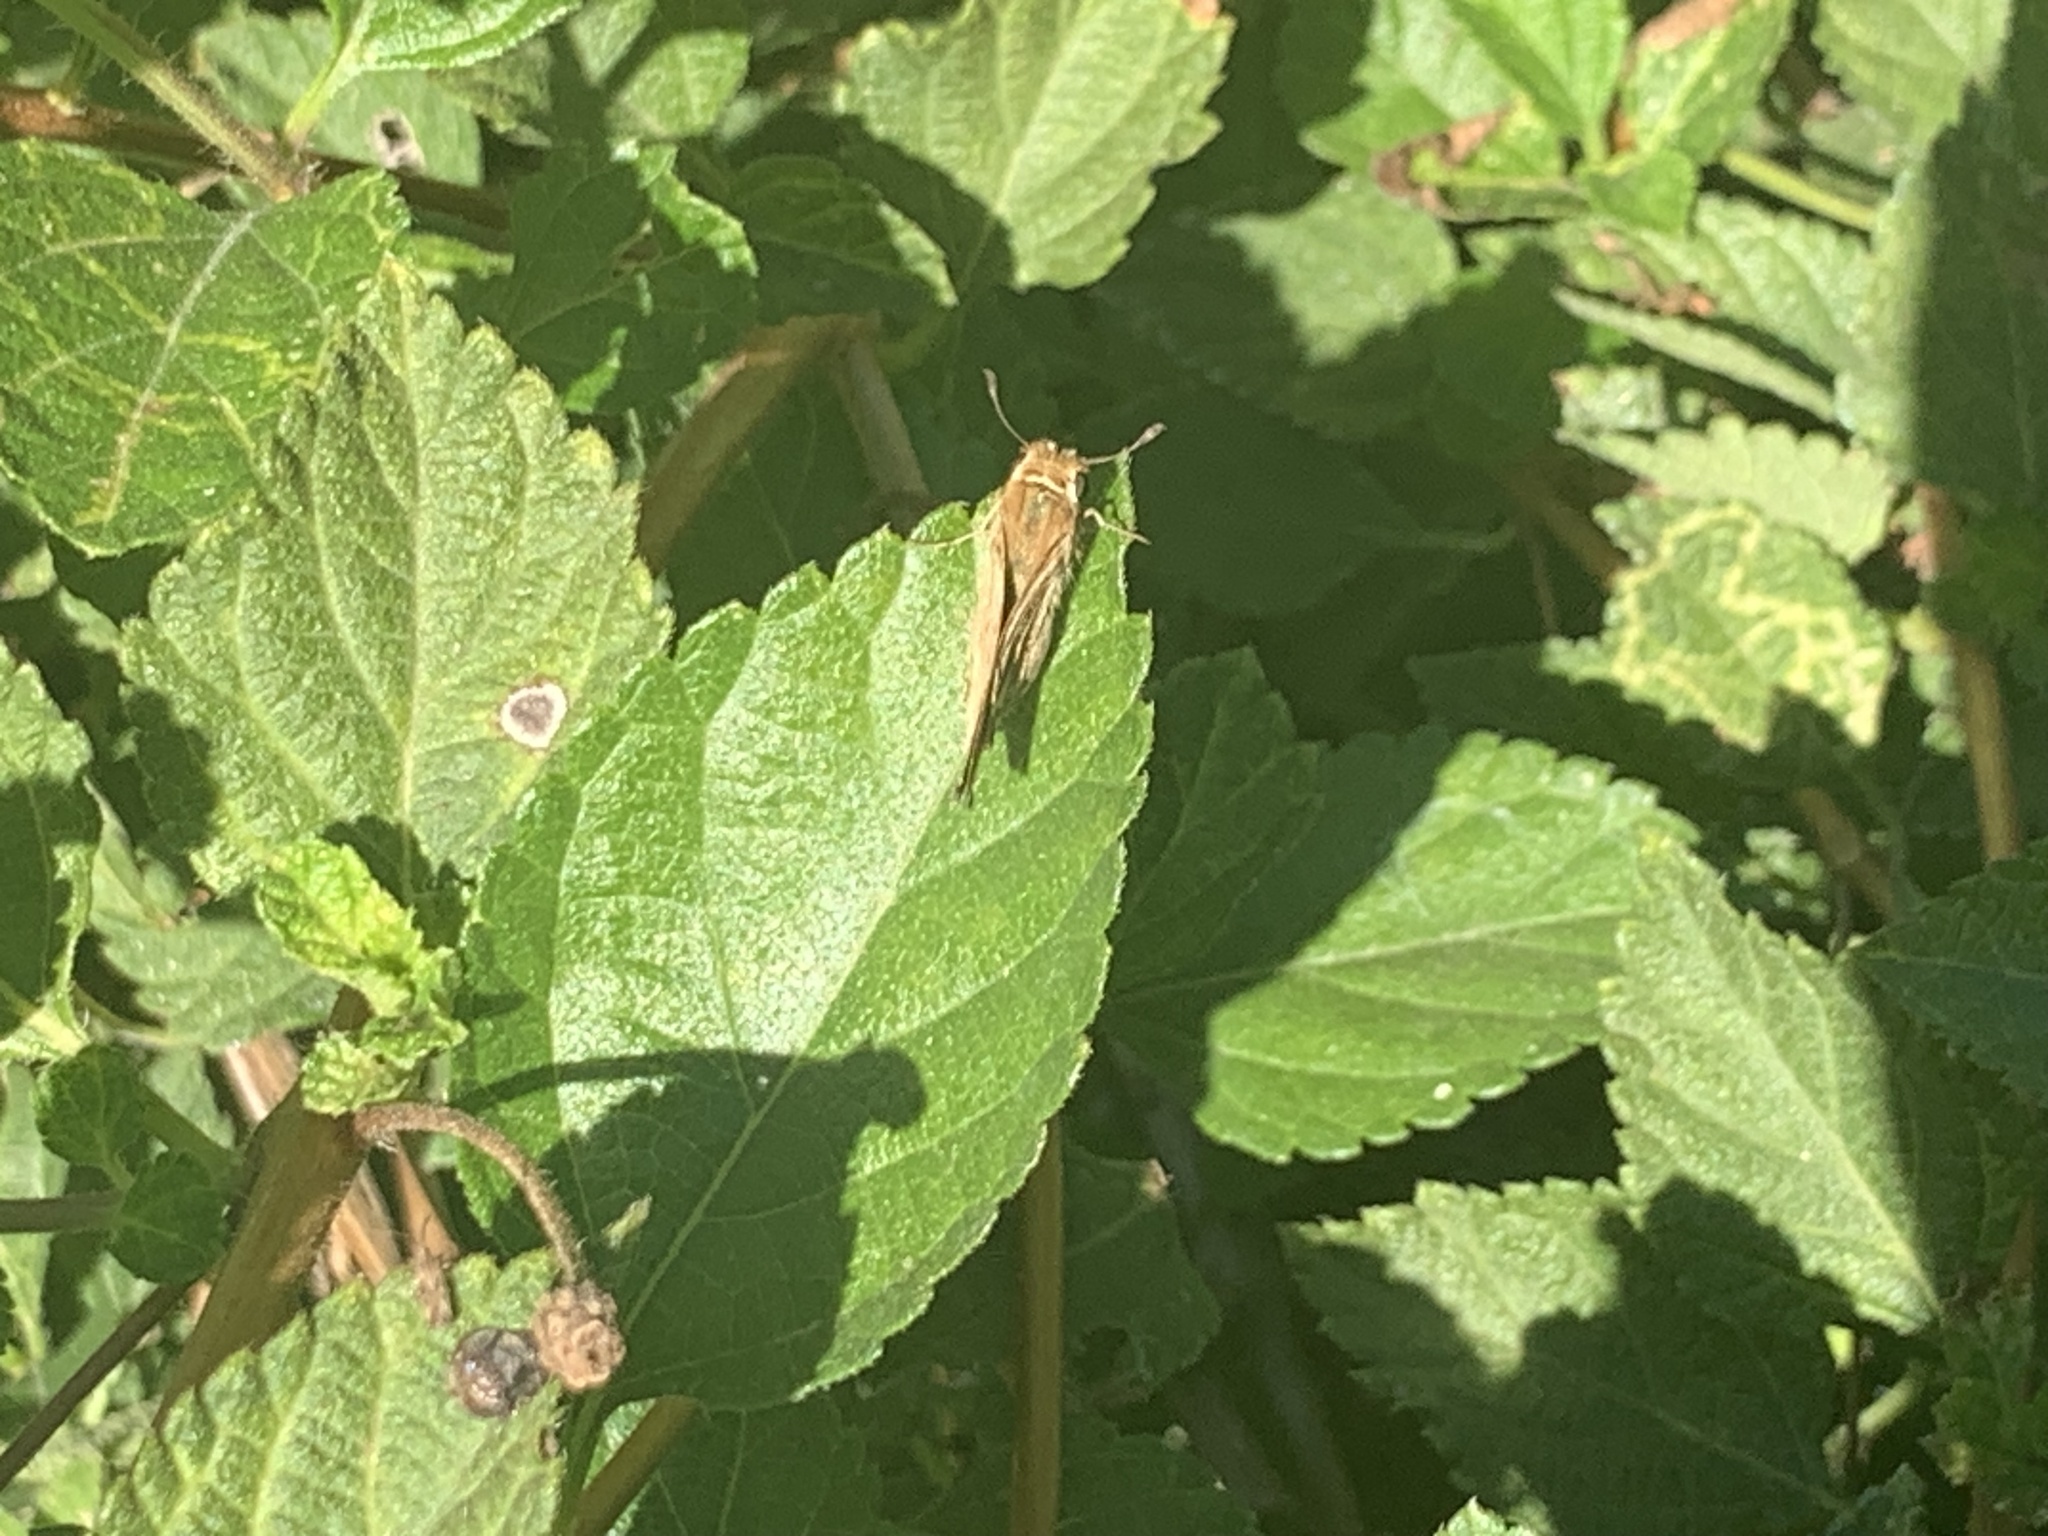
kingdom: Animalia
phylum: Arthropoda
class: Insecta
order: Lepidoptera
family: Hesperiidae
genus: Hylephila
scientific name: Hylephila phyleus
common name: Fiery skipper
